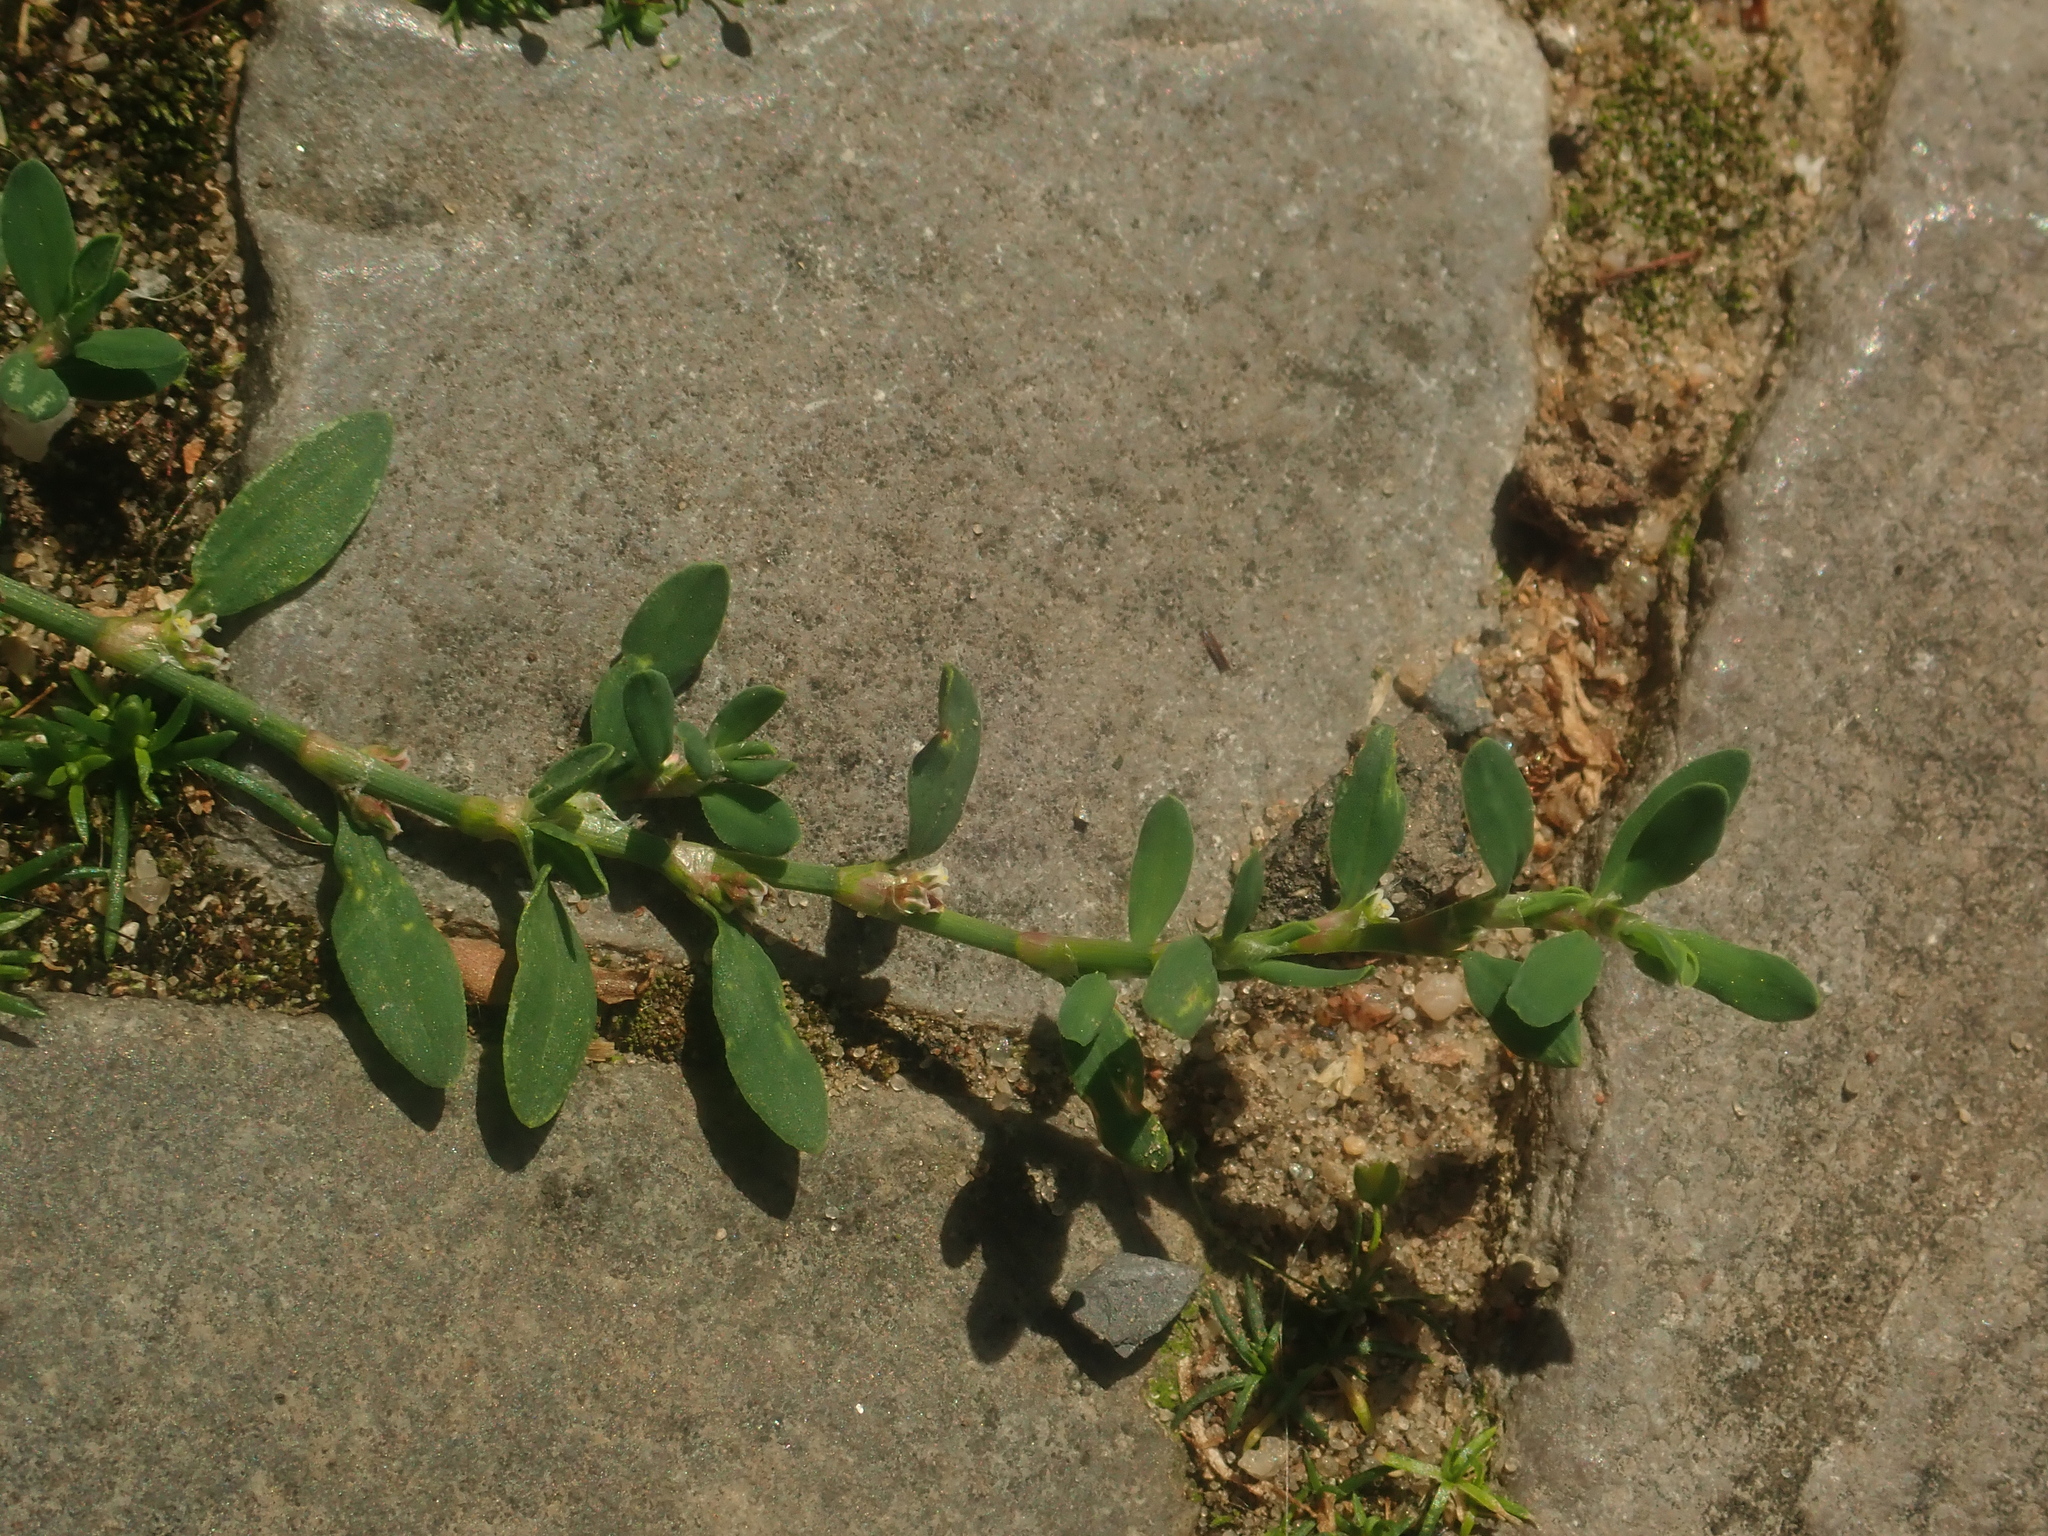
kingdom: Plantae
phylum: Tracheophyta
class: Magnoliopsida
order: Caryophyllales
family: Polygonaceae
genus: Polygonum
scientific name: Polygonum aviculare
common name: Prostrate knotweed
